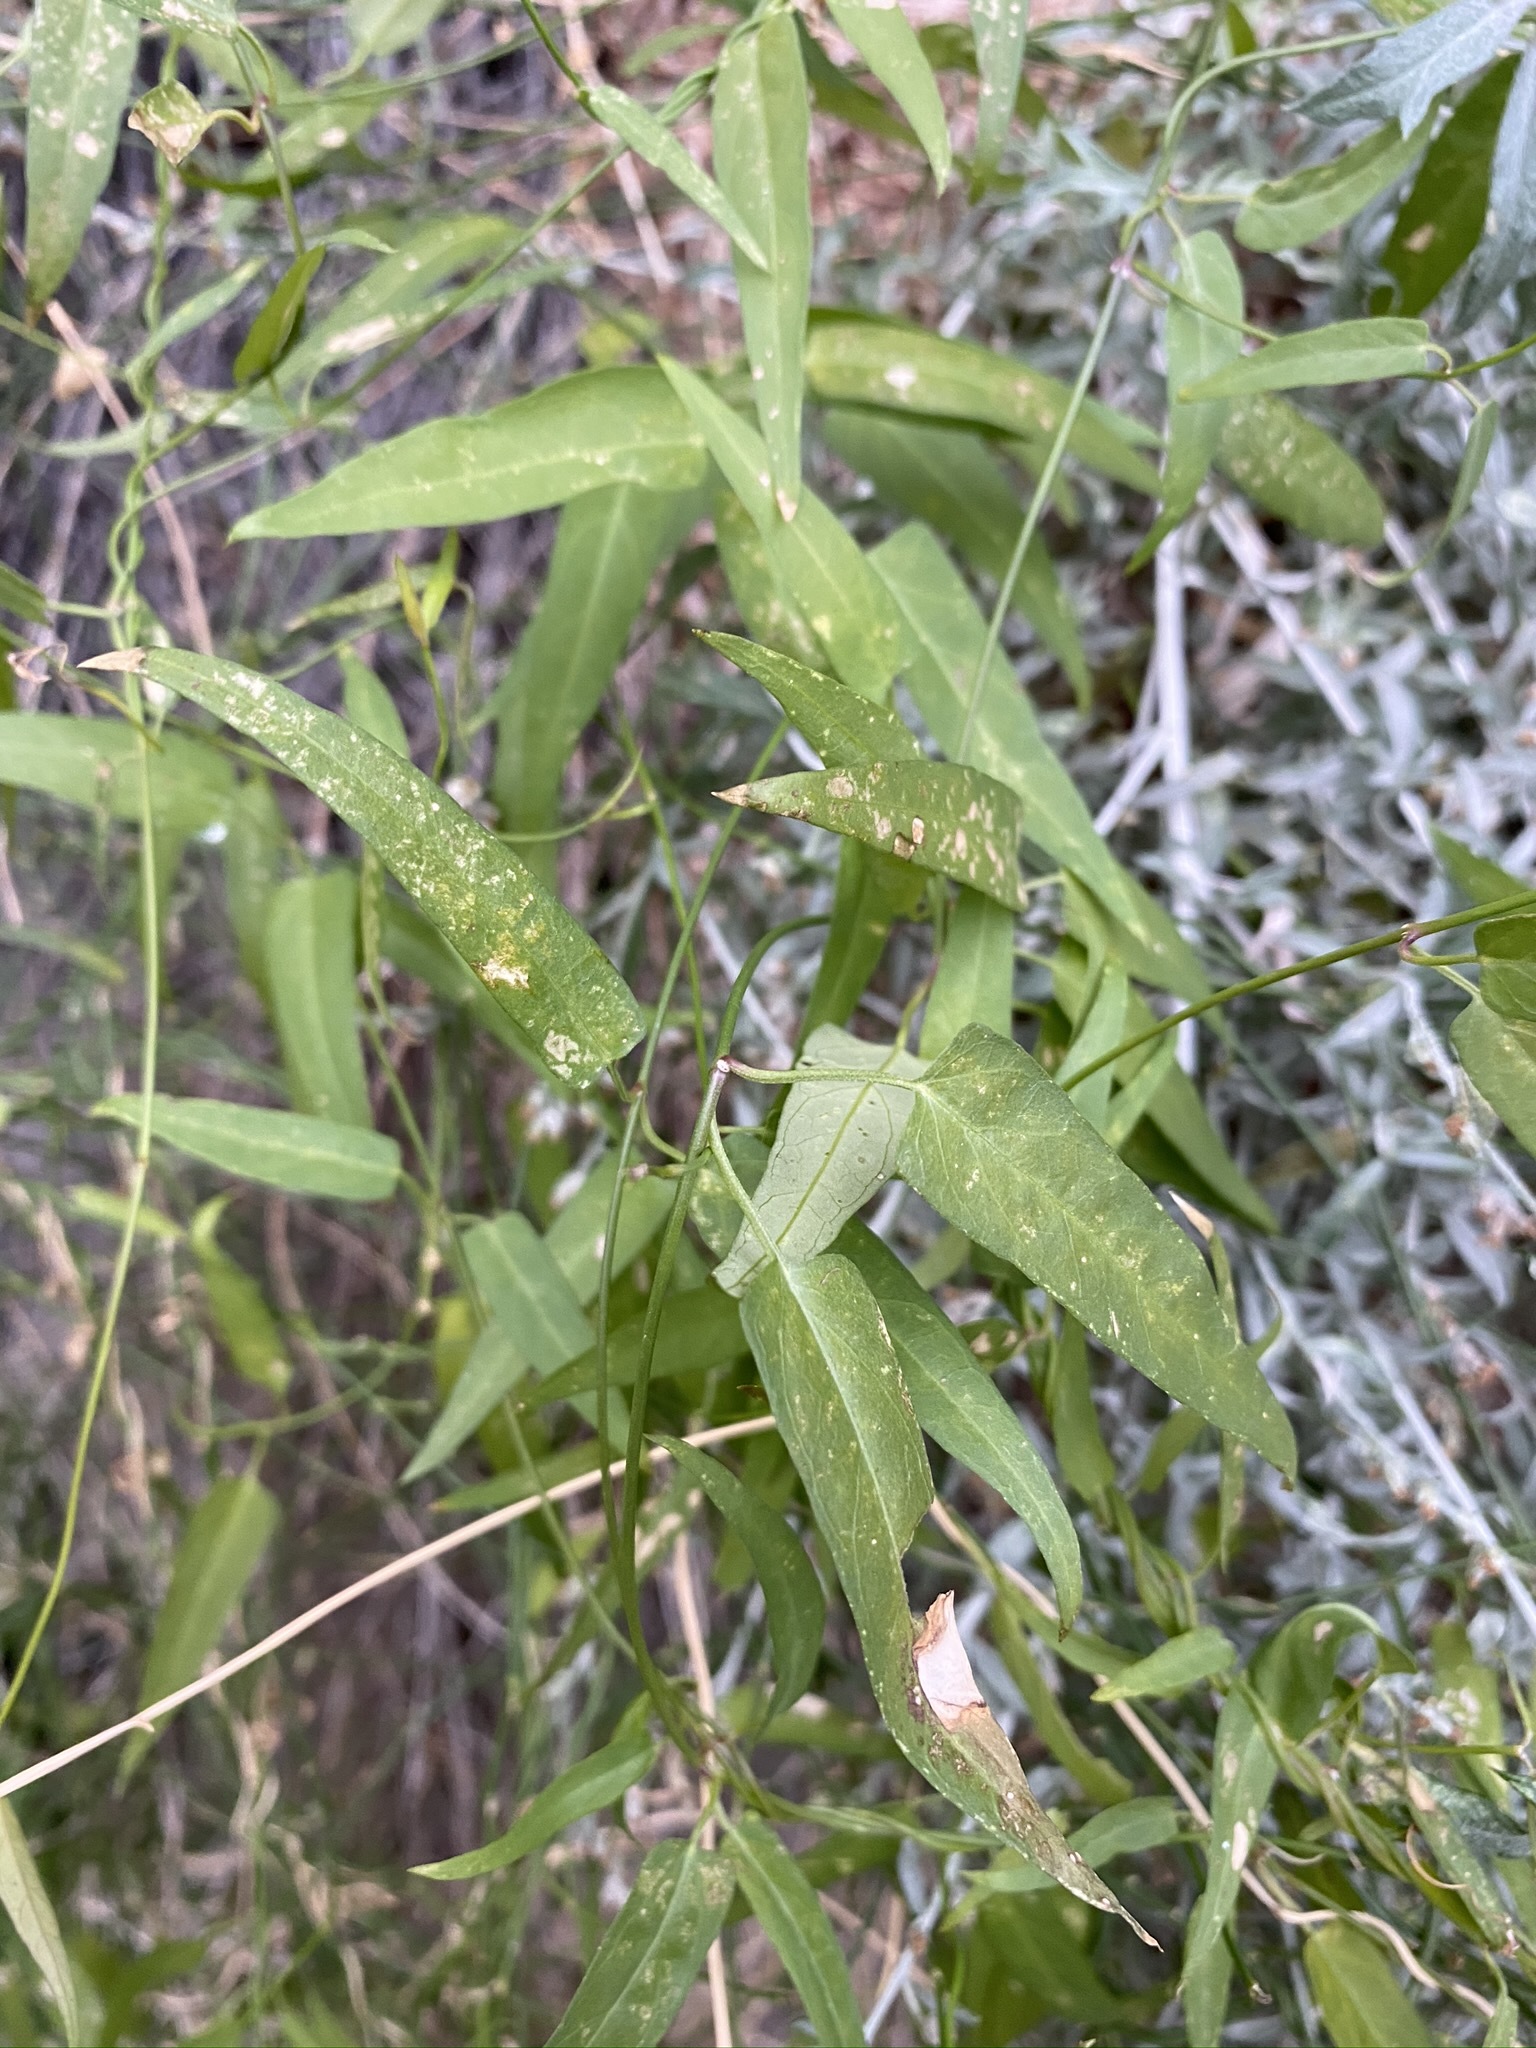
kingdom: Plantae
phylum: Tracheophyta
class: Magnoliopsida
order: Gentianales
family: Apocynaceae
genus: Funastrum
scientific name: Funastrum heterophyllum
